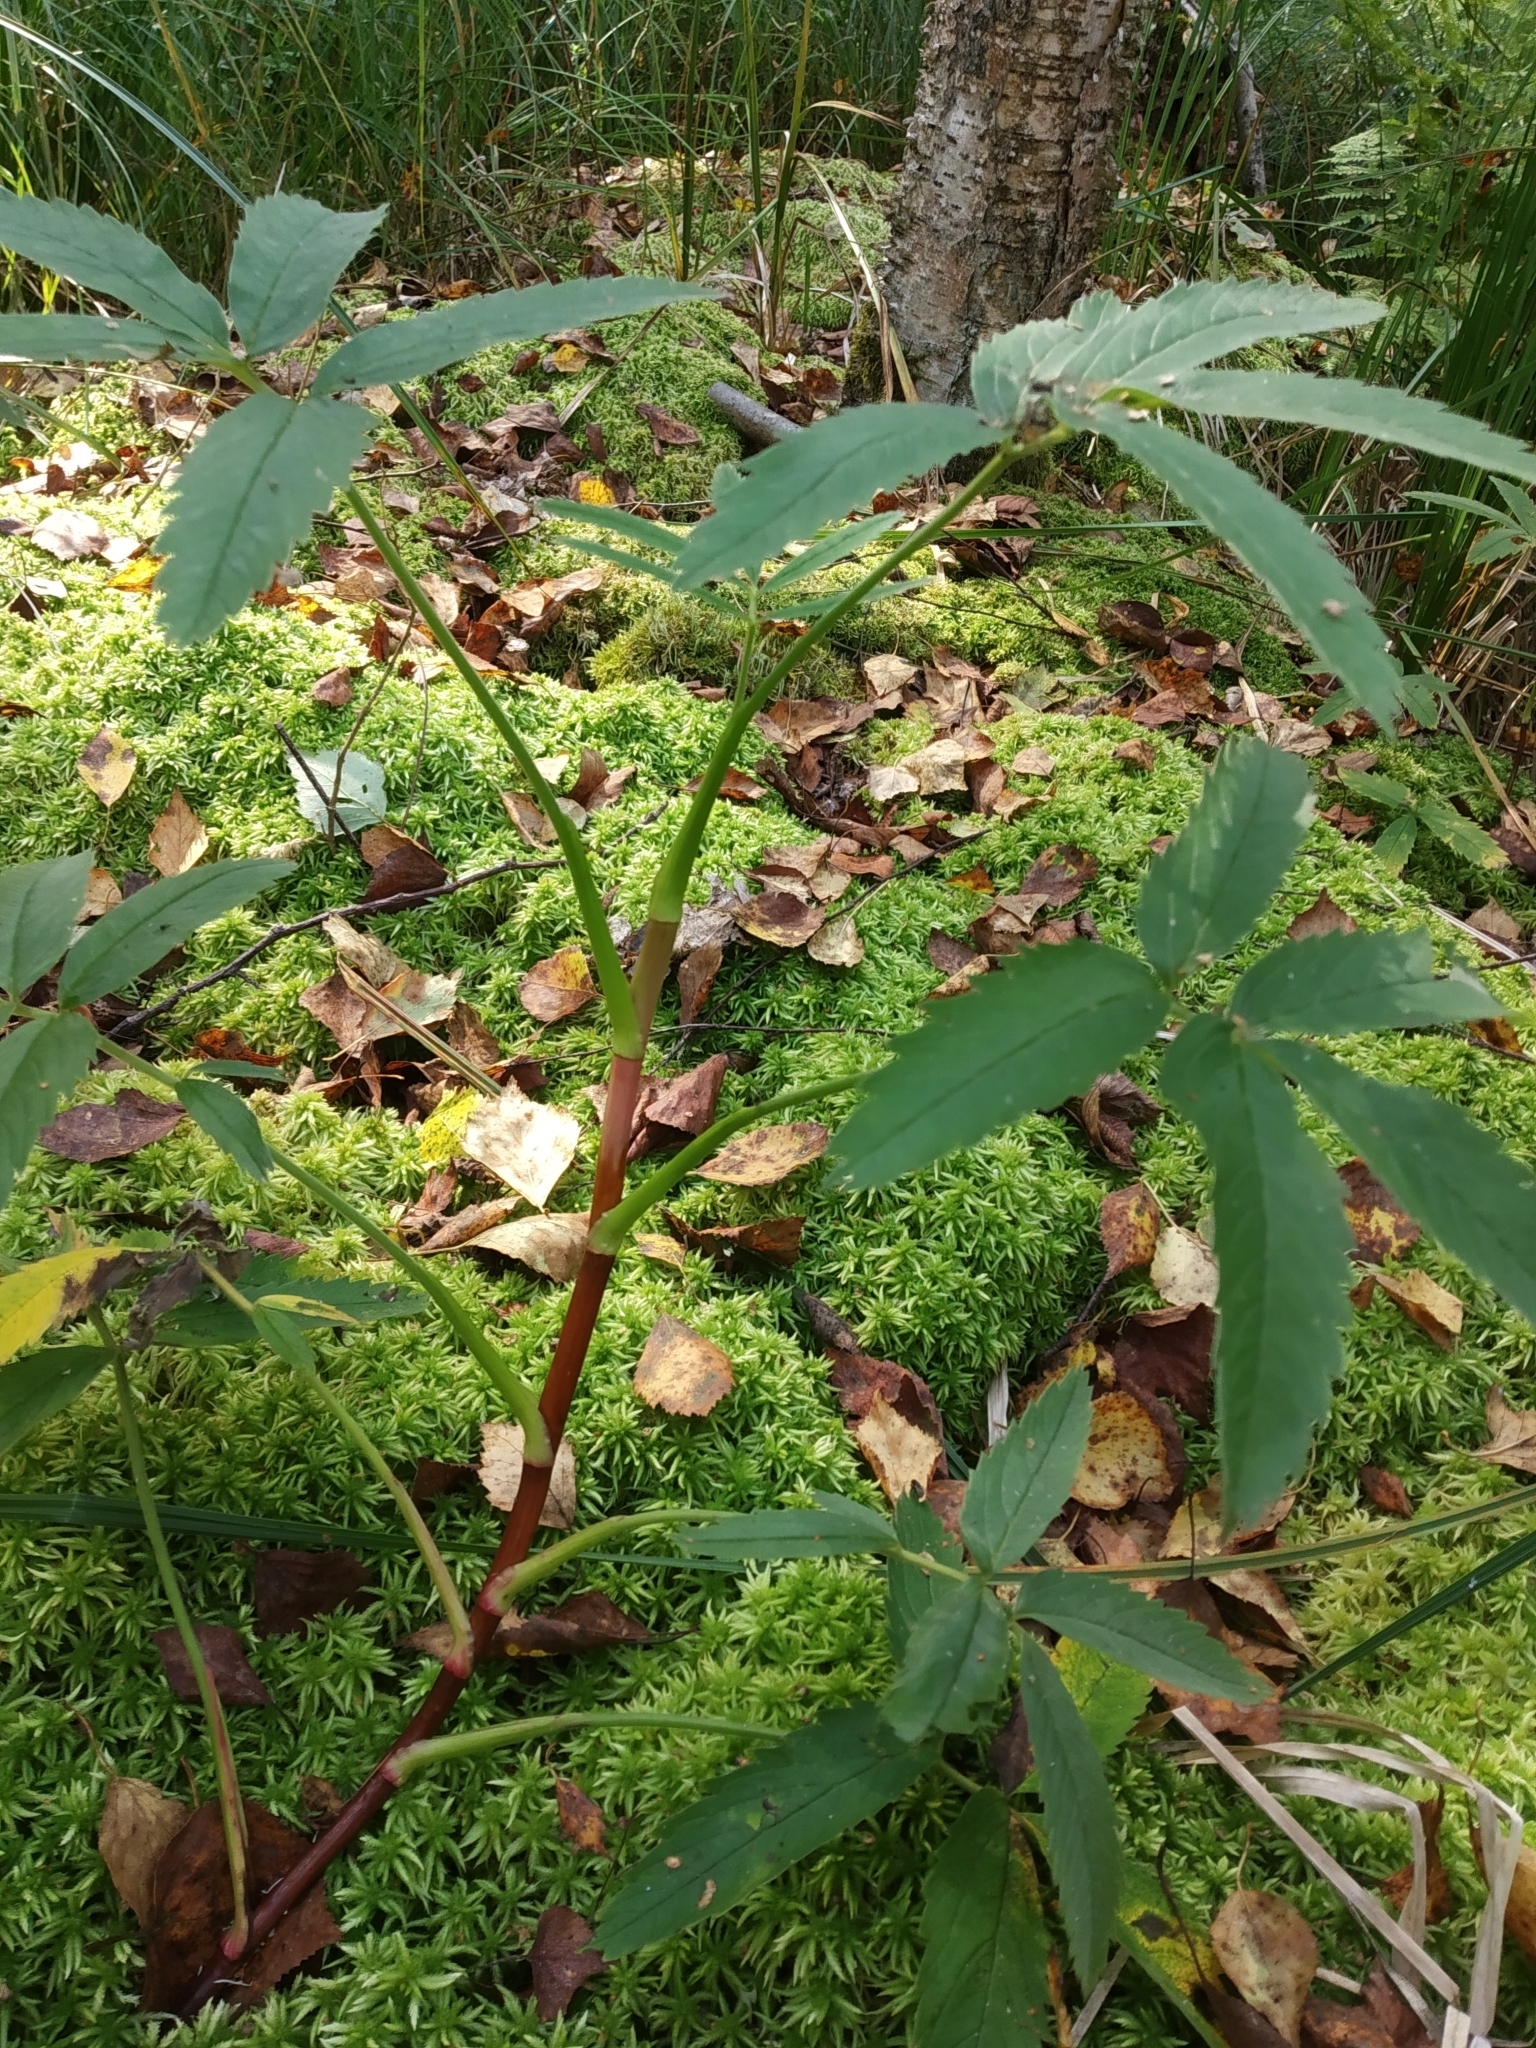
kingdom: Plantae
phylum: Tracheophyta
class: Magnoliopsida
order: Rosales
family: Rosaceae
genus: Comarum
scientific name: Comarum palustre
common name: Marsh cinquefoil
